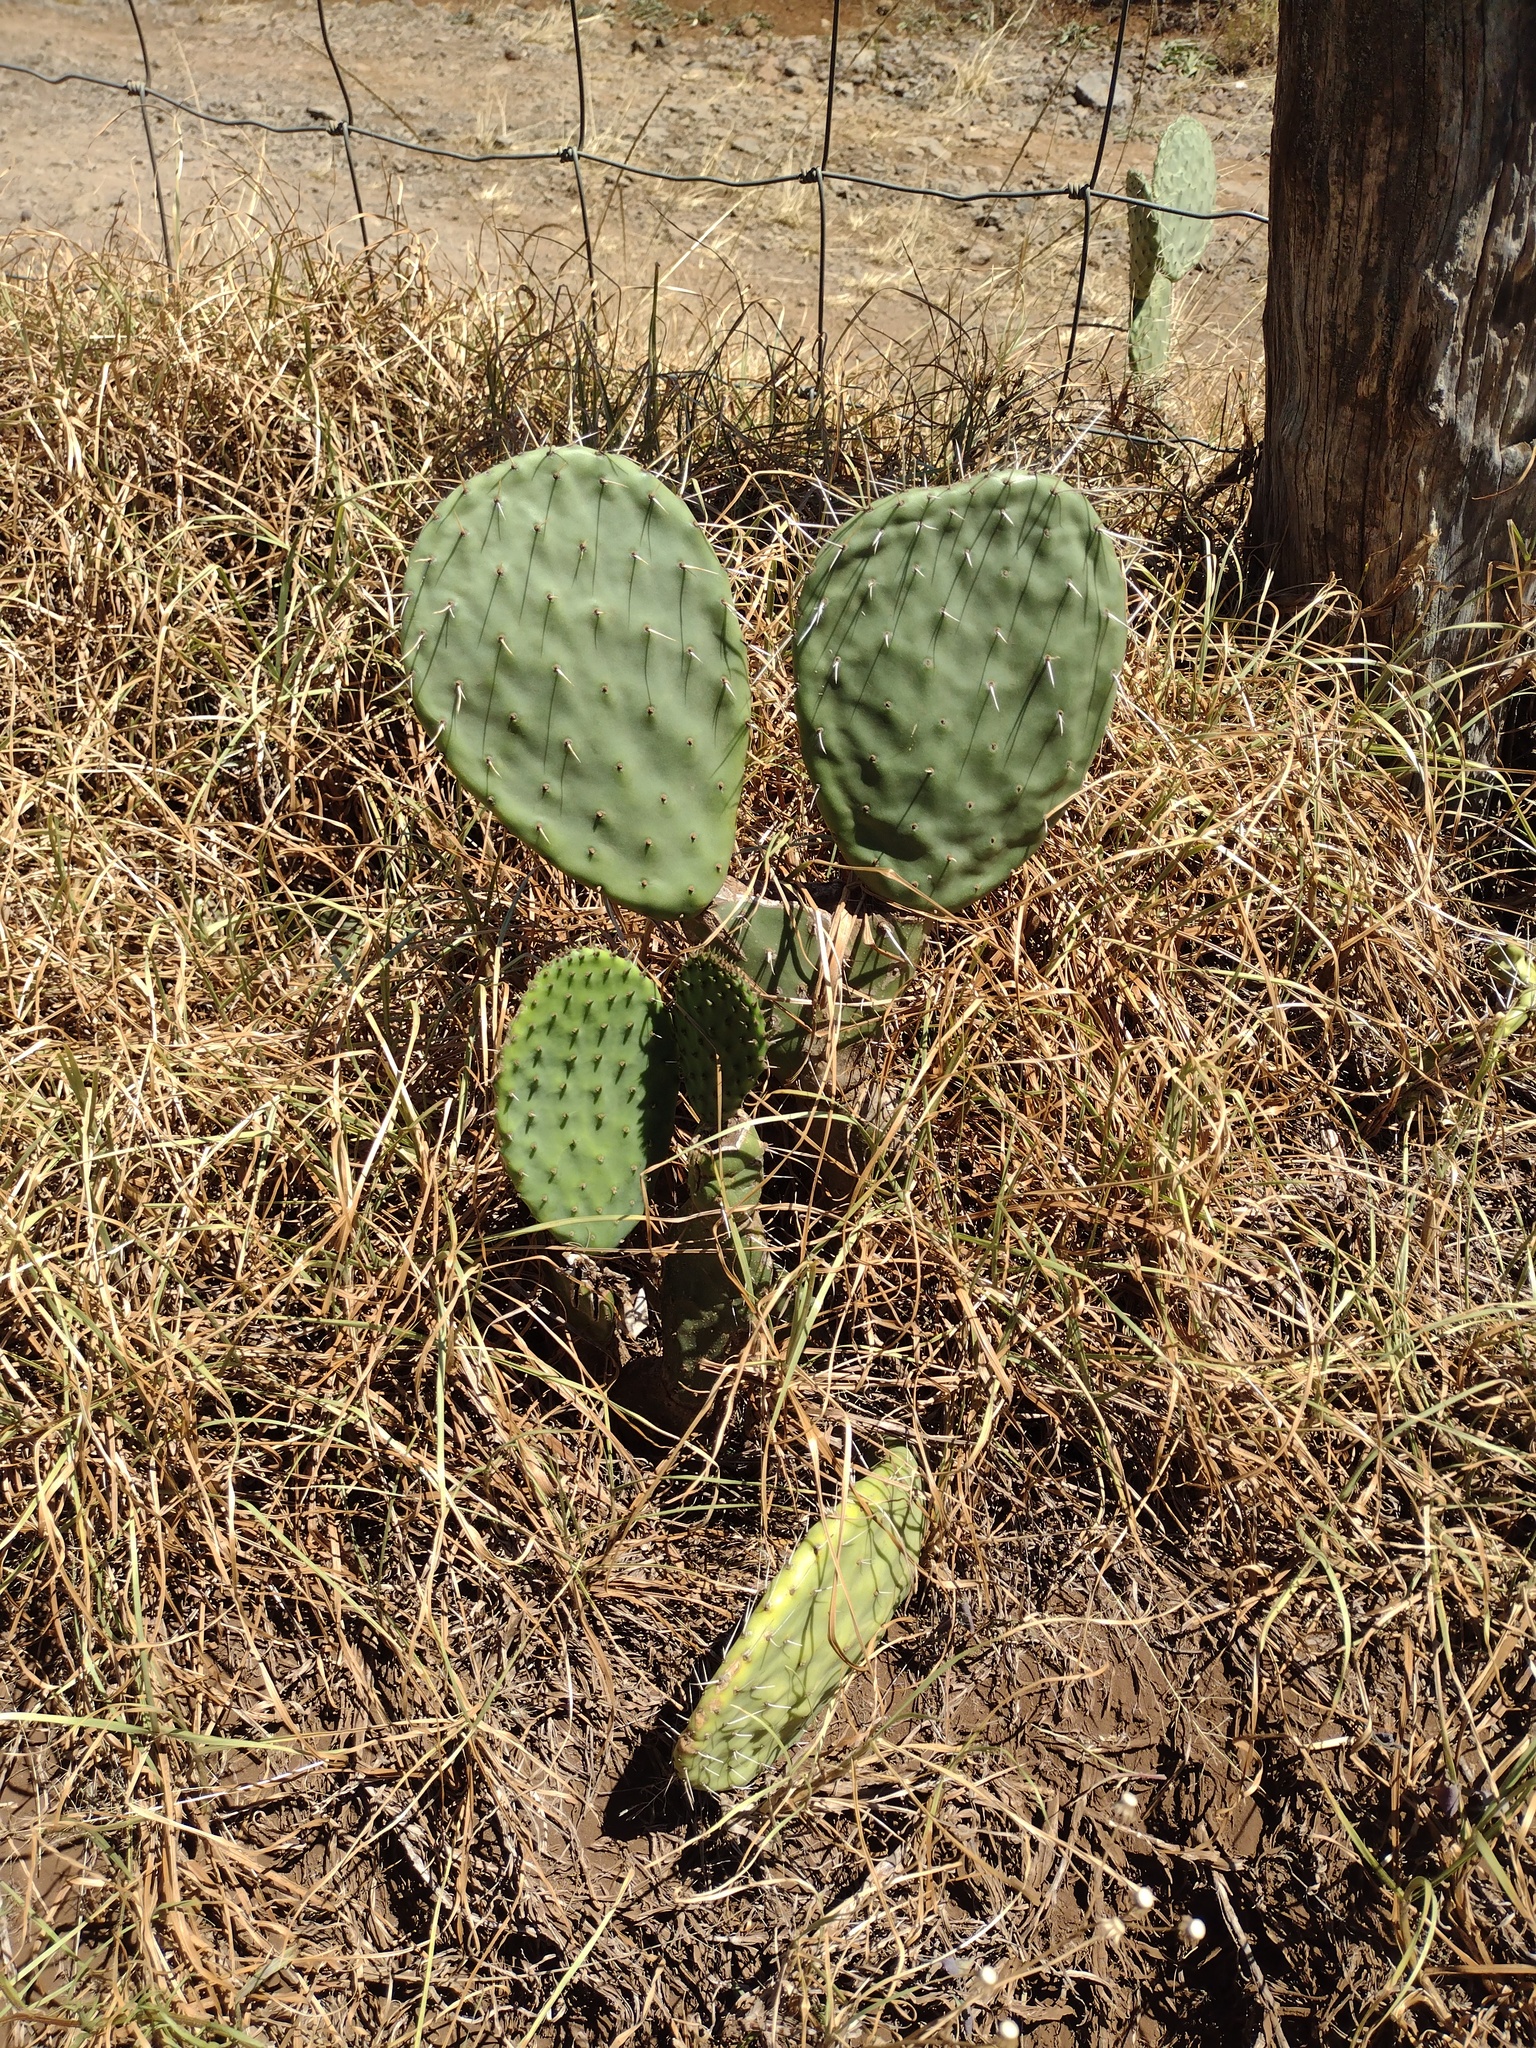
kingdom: Plantae
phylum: Tracheophyta
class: Magnoliopsida
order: Caryophyllales
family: Cactaceae
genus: Opuntia
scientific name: Opuntia ficus-indica
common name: Barbary fig
